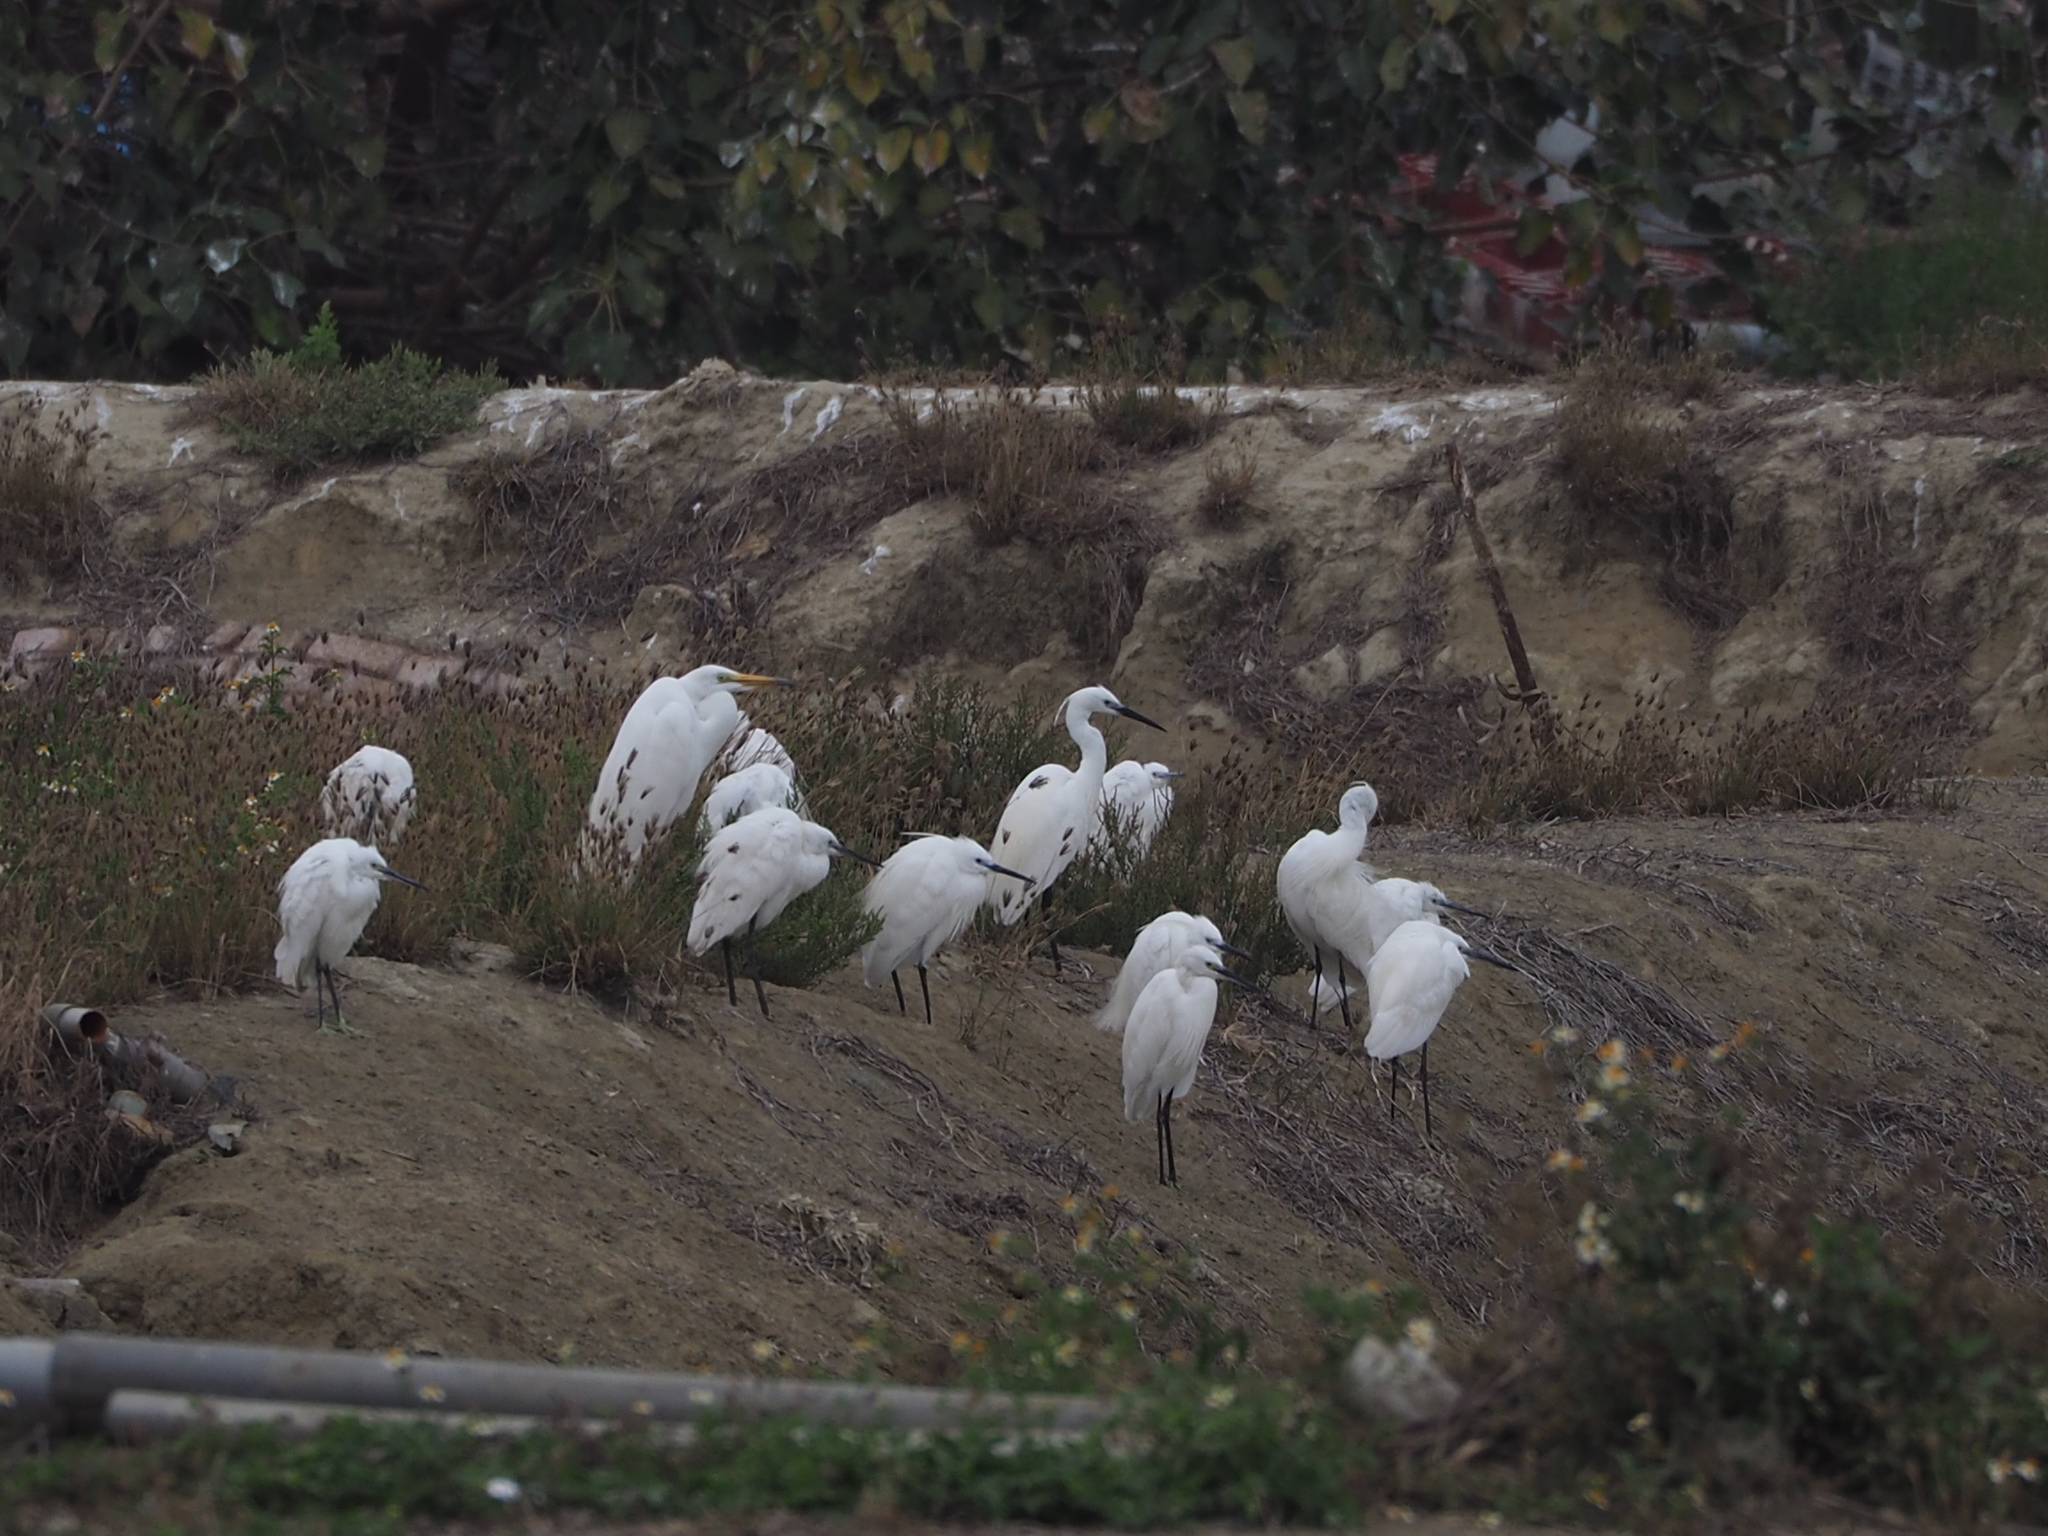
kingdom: Animalia
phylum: Chordata
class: Aves
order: Pelecaniformes
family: Ardeidae
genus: Egretta
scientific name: Egretta garzetta
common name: Little egret
